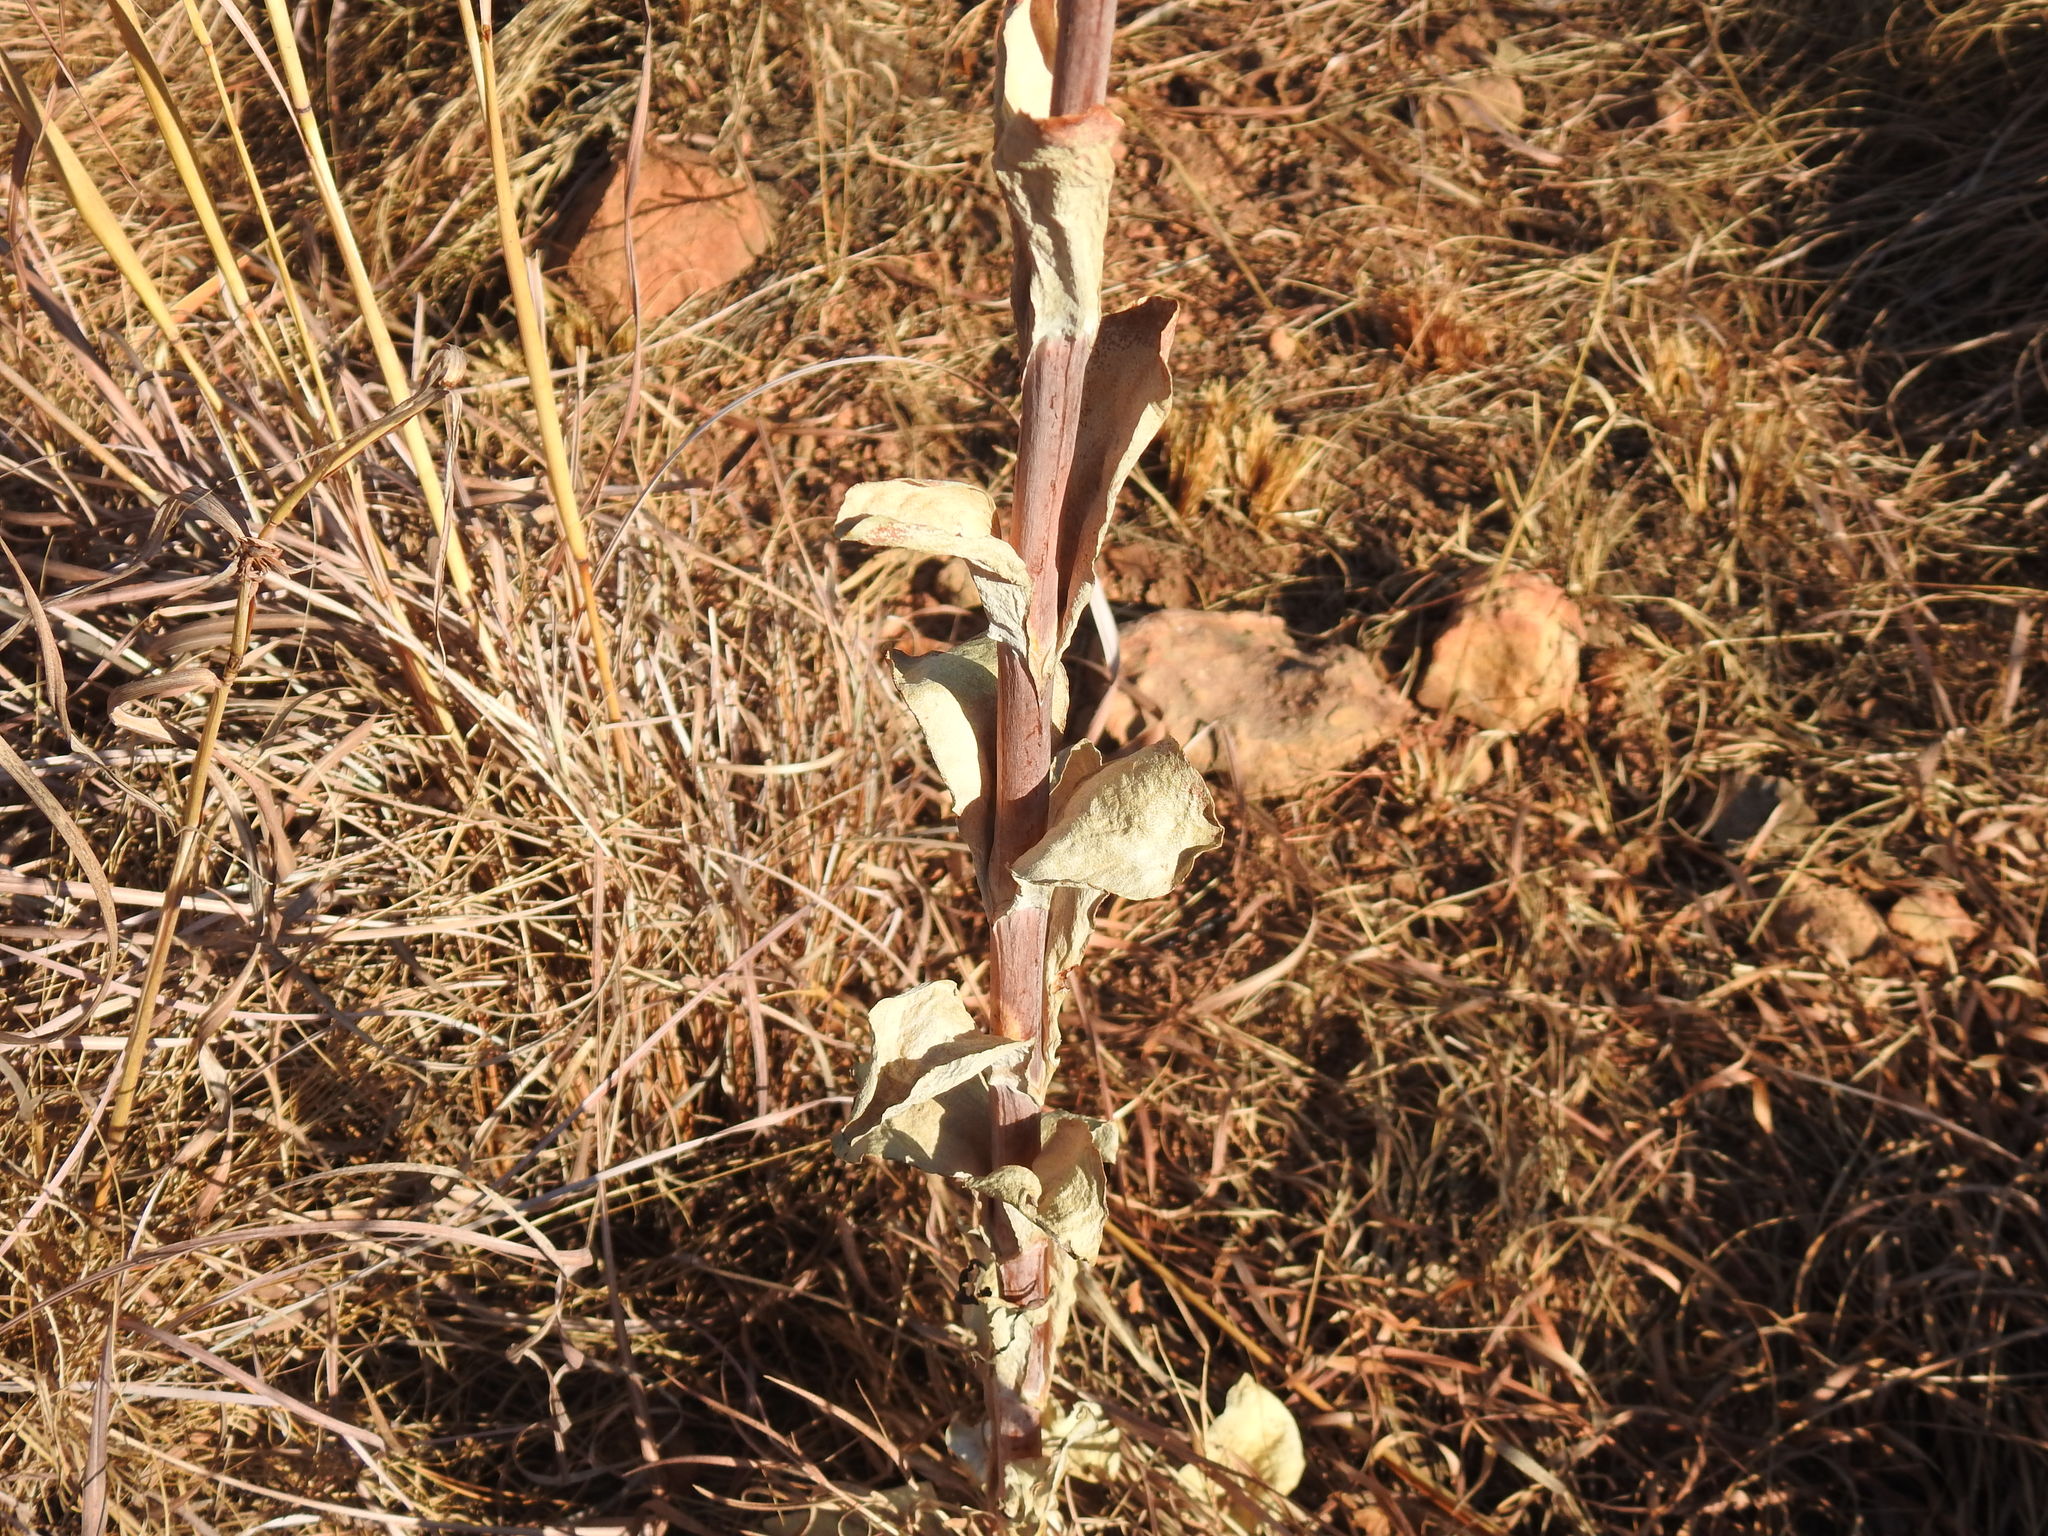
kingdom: Plantae
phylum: Tracheophyta
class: Magnoliopsida
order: Saxifragales
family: Crassulaceae
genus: Kalanchoe
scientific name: Kalanchoe thyrsiflora
